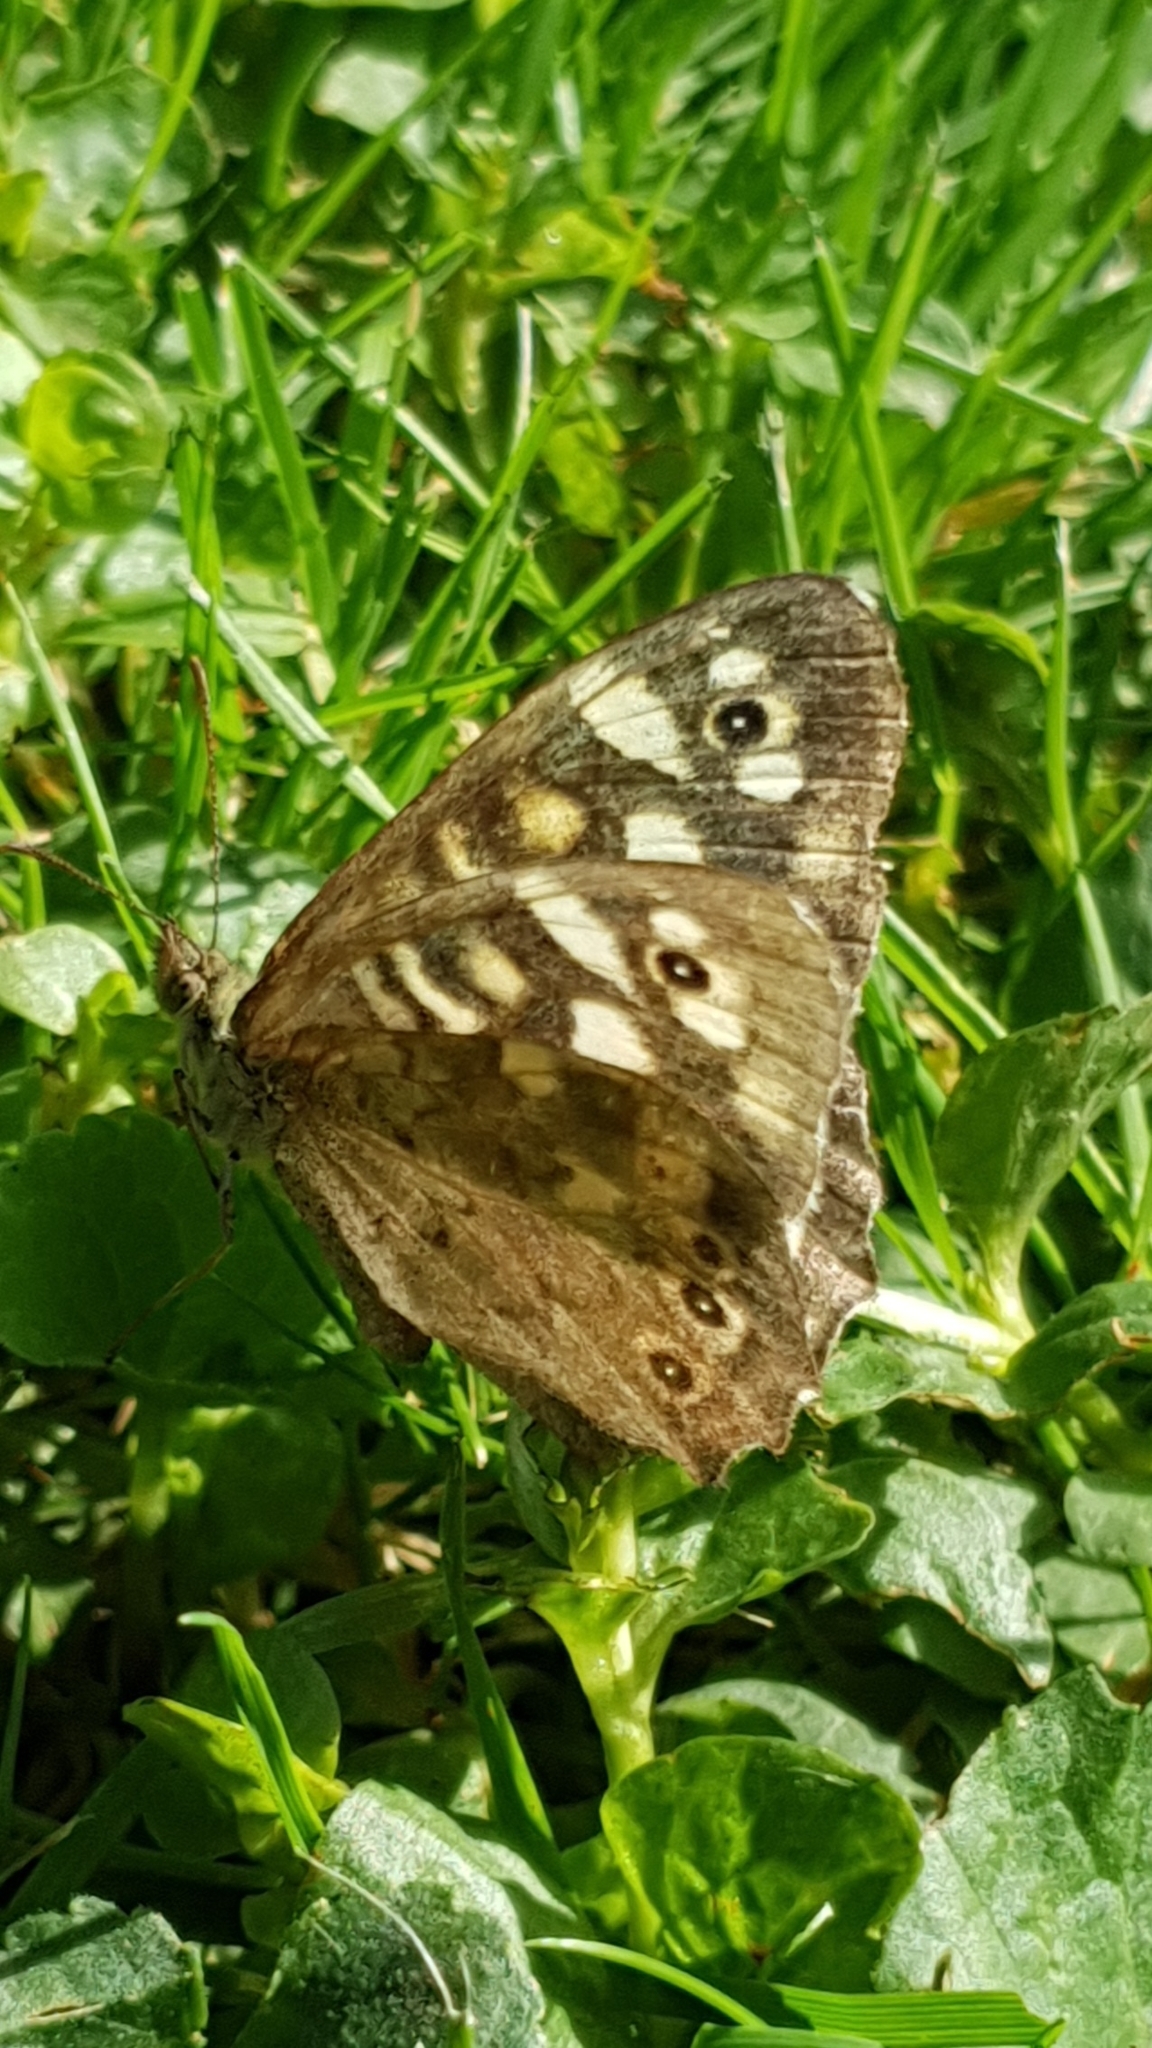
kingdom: Animalia
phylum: Arthropoda
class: Insecta
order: Lepidoptera
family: Nymphalidae
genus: Pararge
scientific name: Pararge aegeria
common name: Speckled wood
